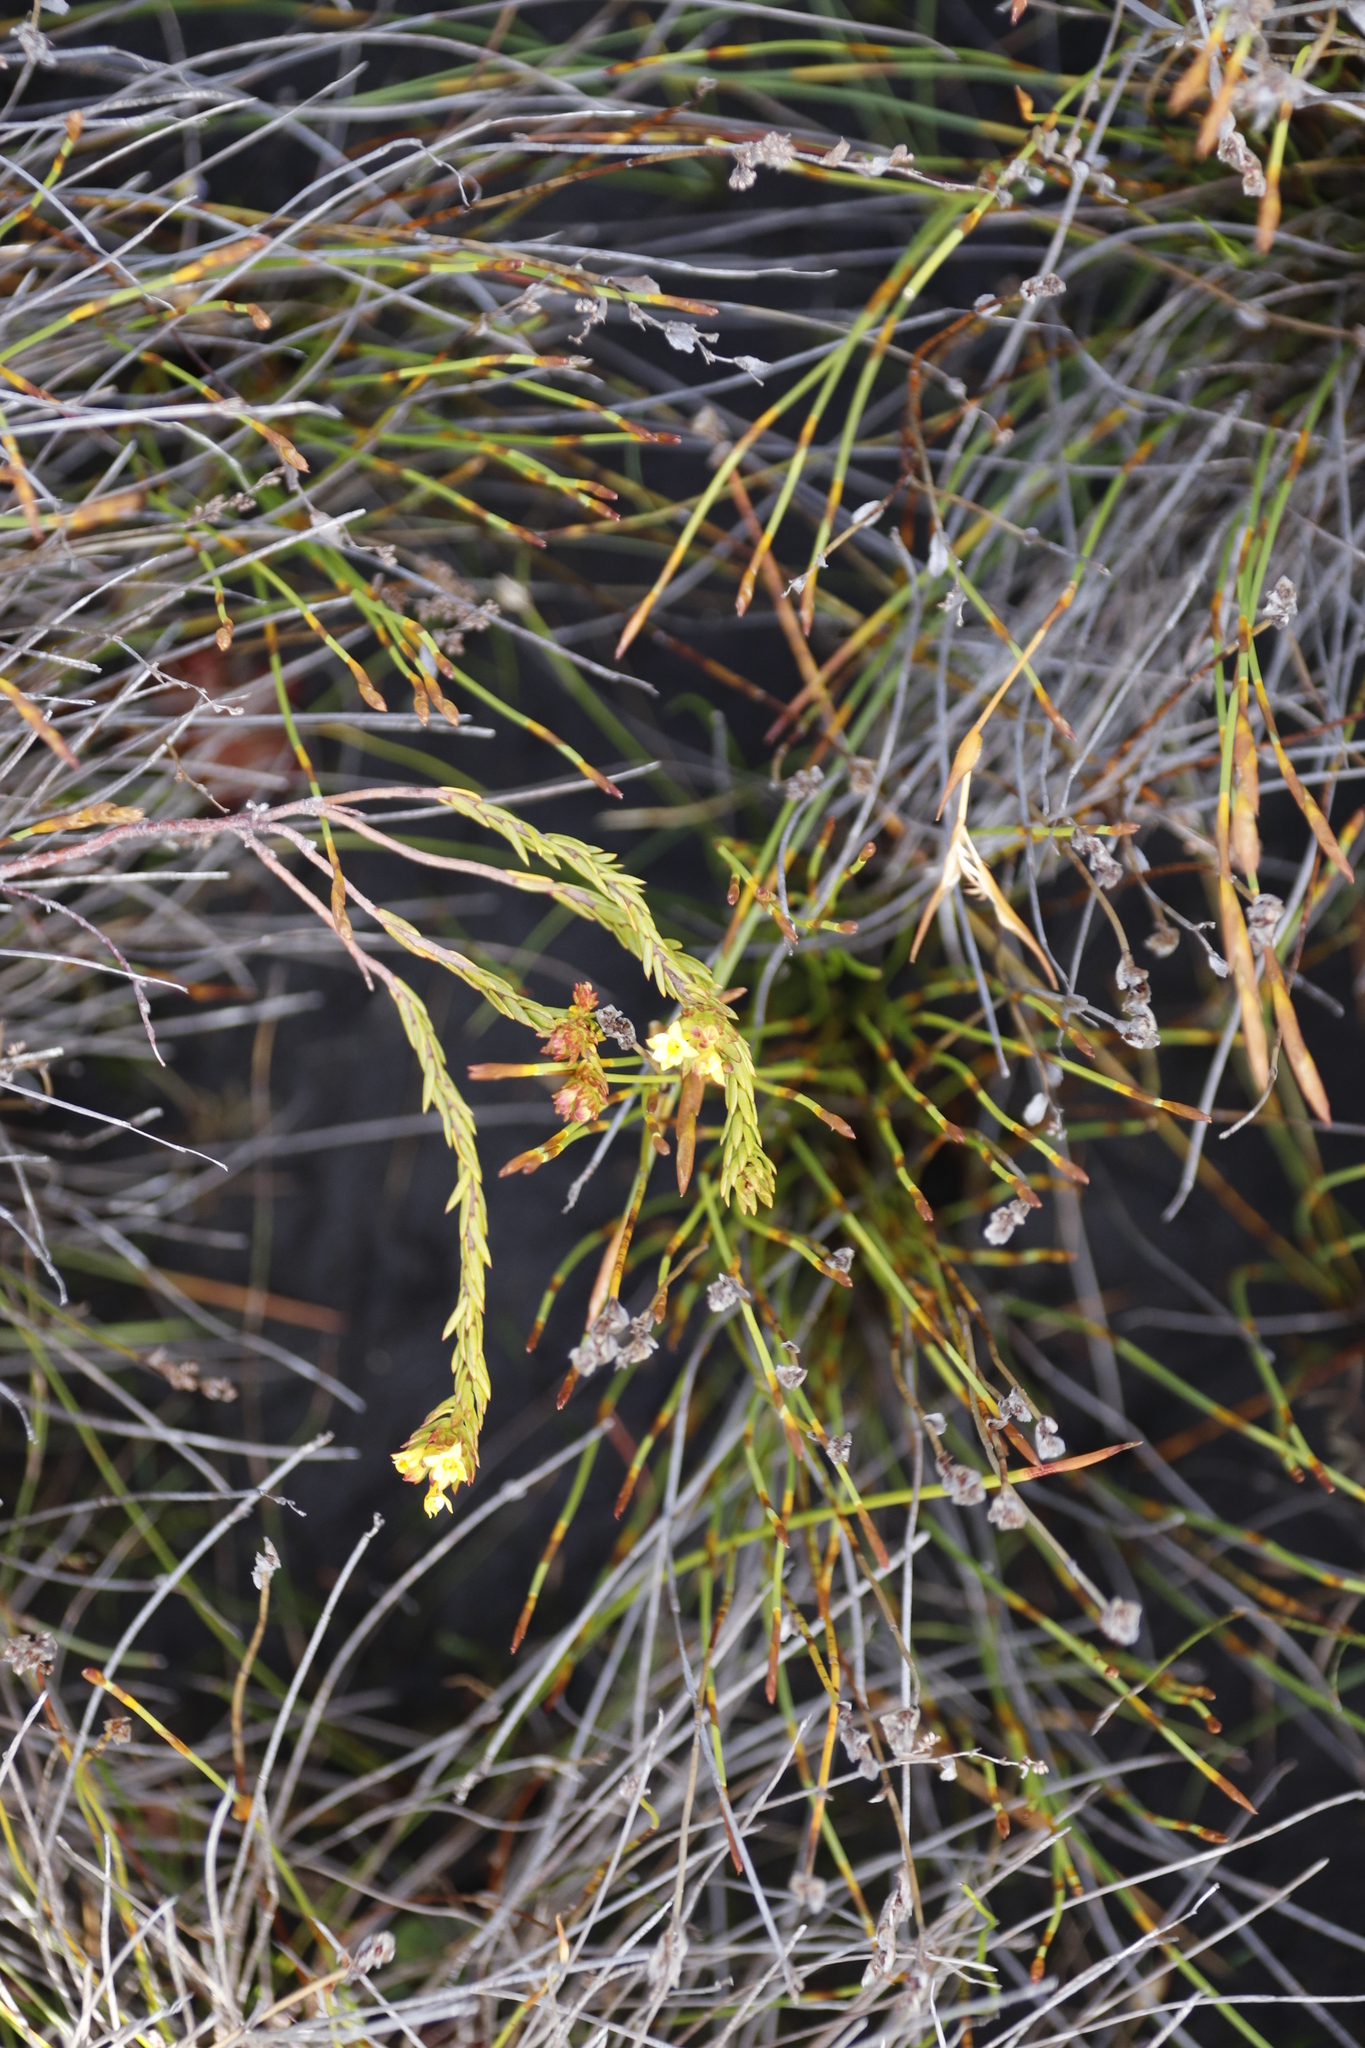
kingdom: Plantae
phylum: Tracheophyta
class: Magnoliopsida
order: Malvales
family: Thymelaeaceae
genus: Gnidia
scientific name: Gnidia juniperifolia
